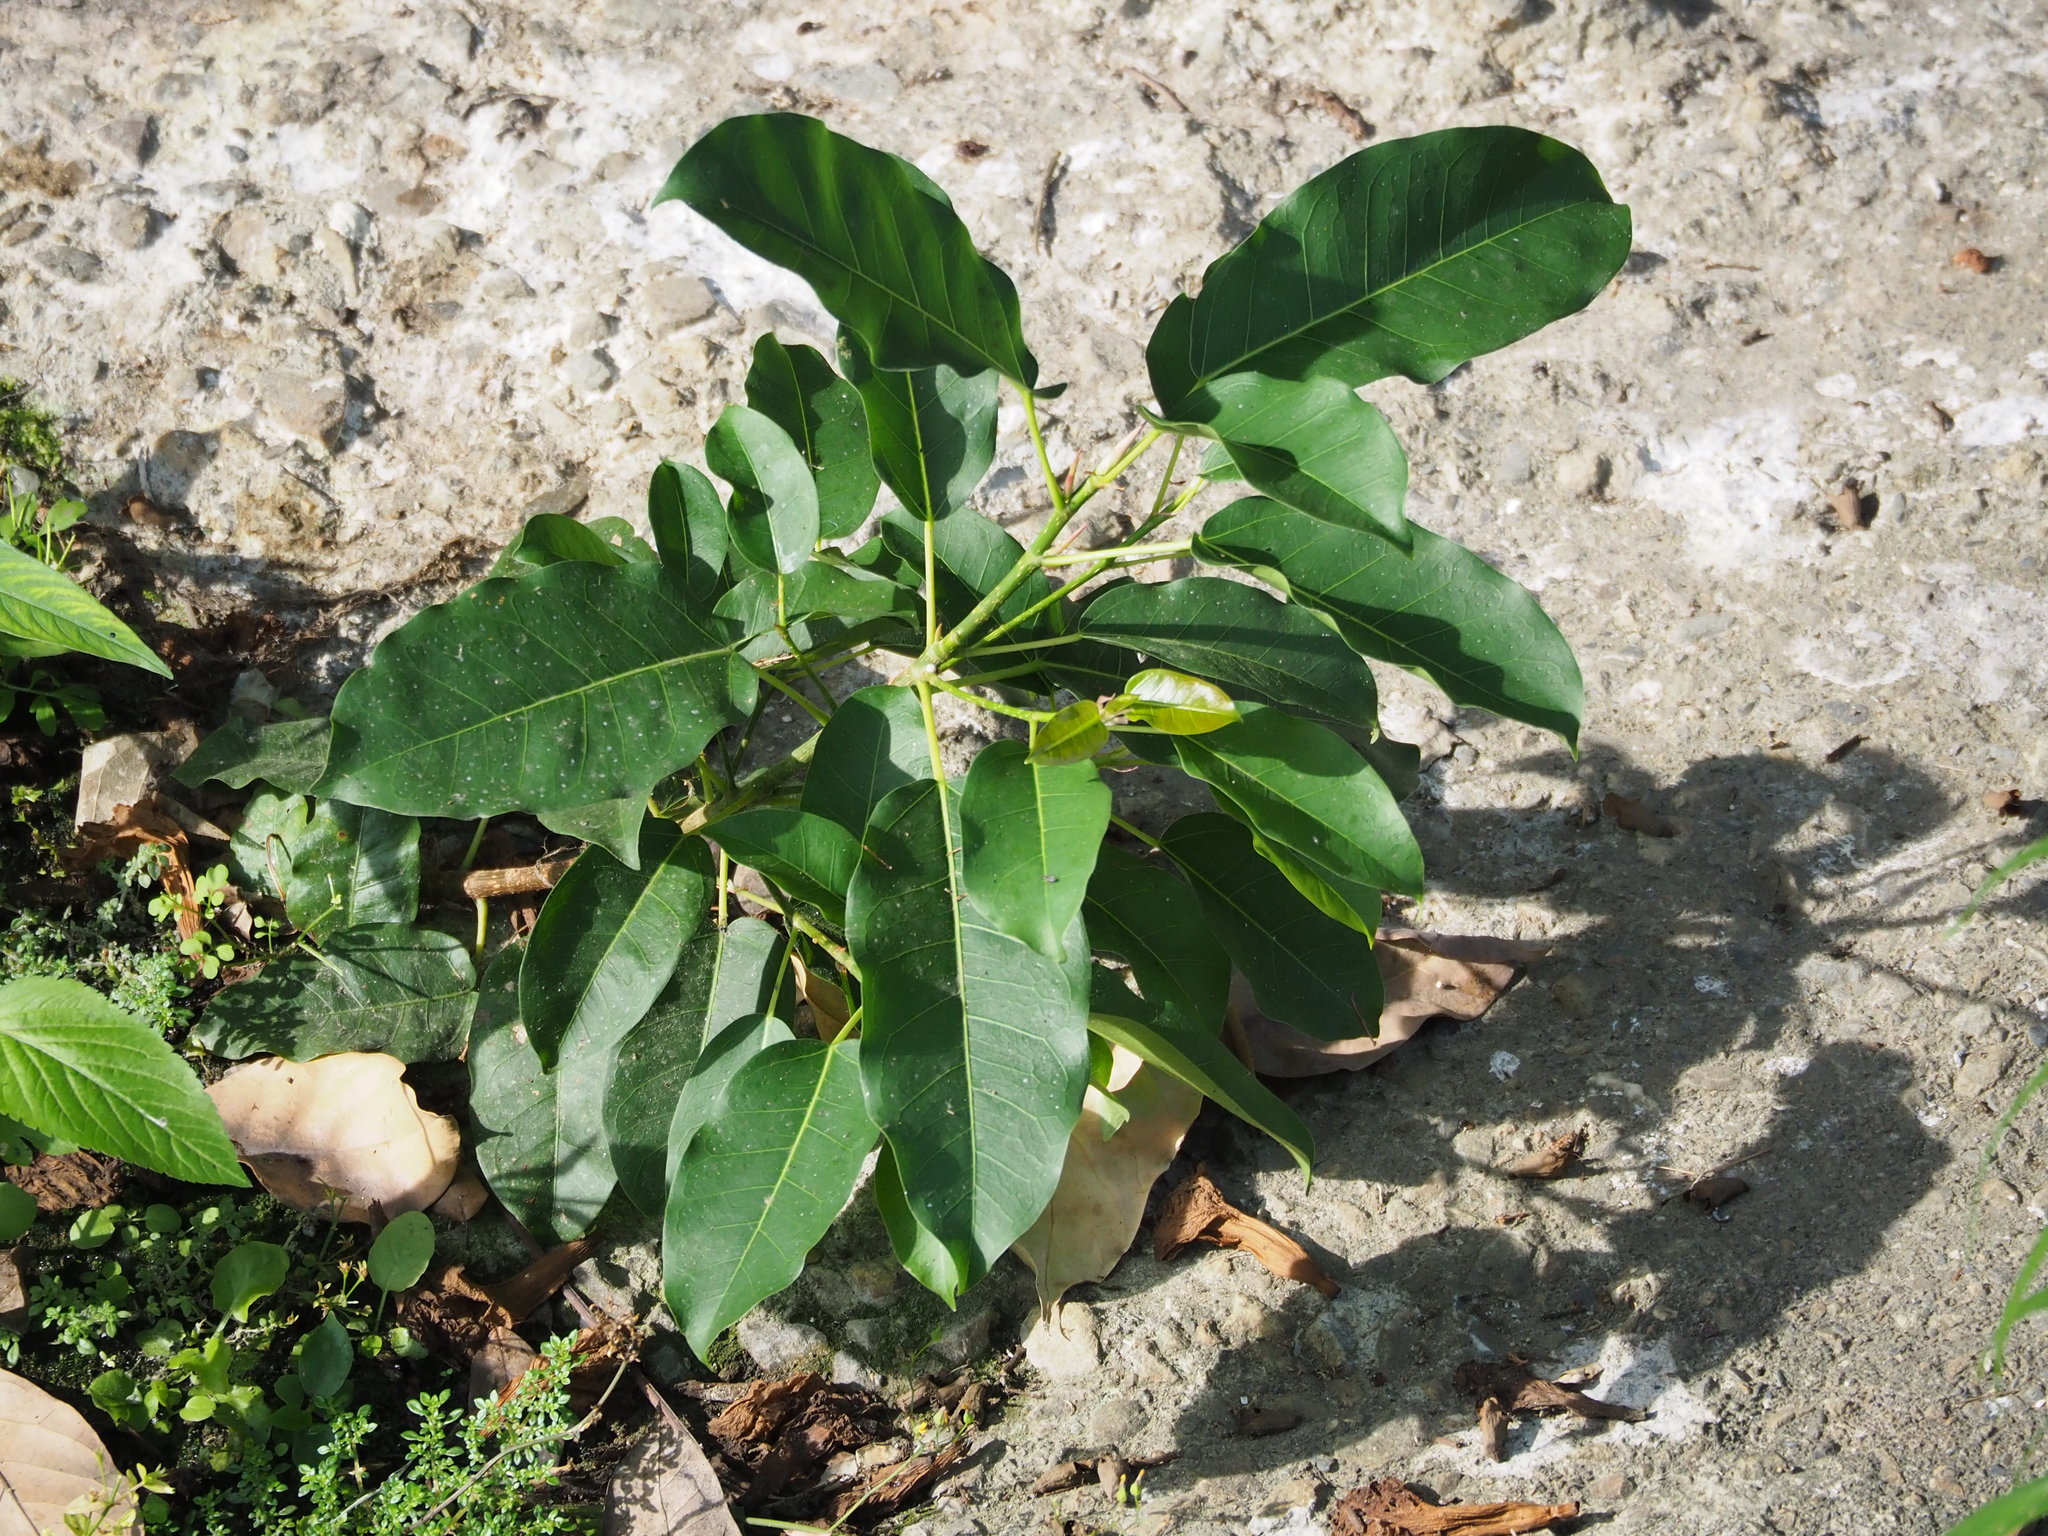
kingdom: Plantae
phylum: Tracheophyta
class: Magnoliopsida
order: Rosales
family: Moraceae
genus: Ficus
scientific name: Ficus subpisocarpa
